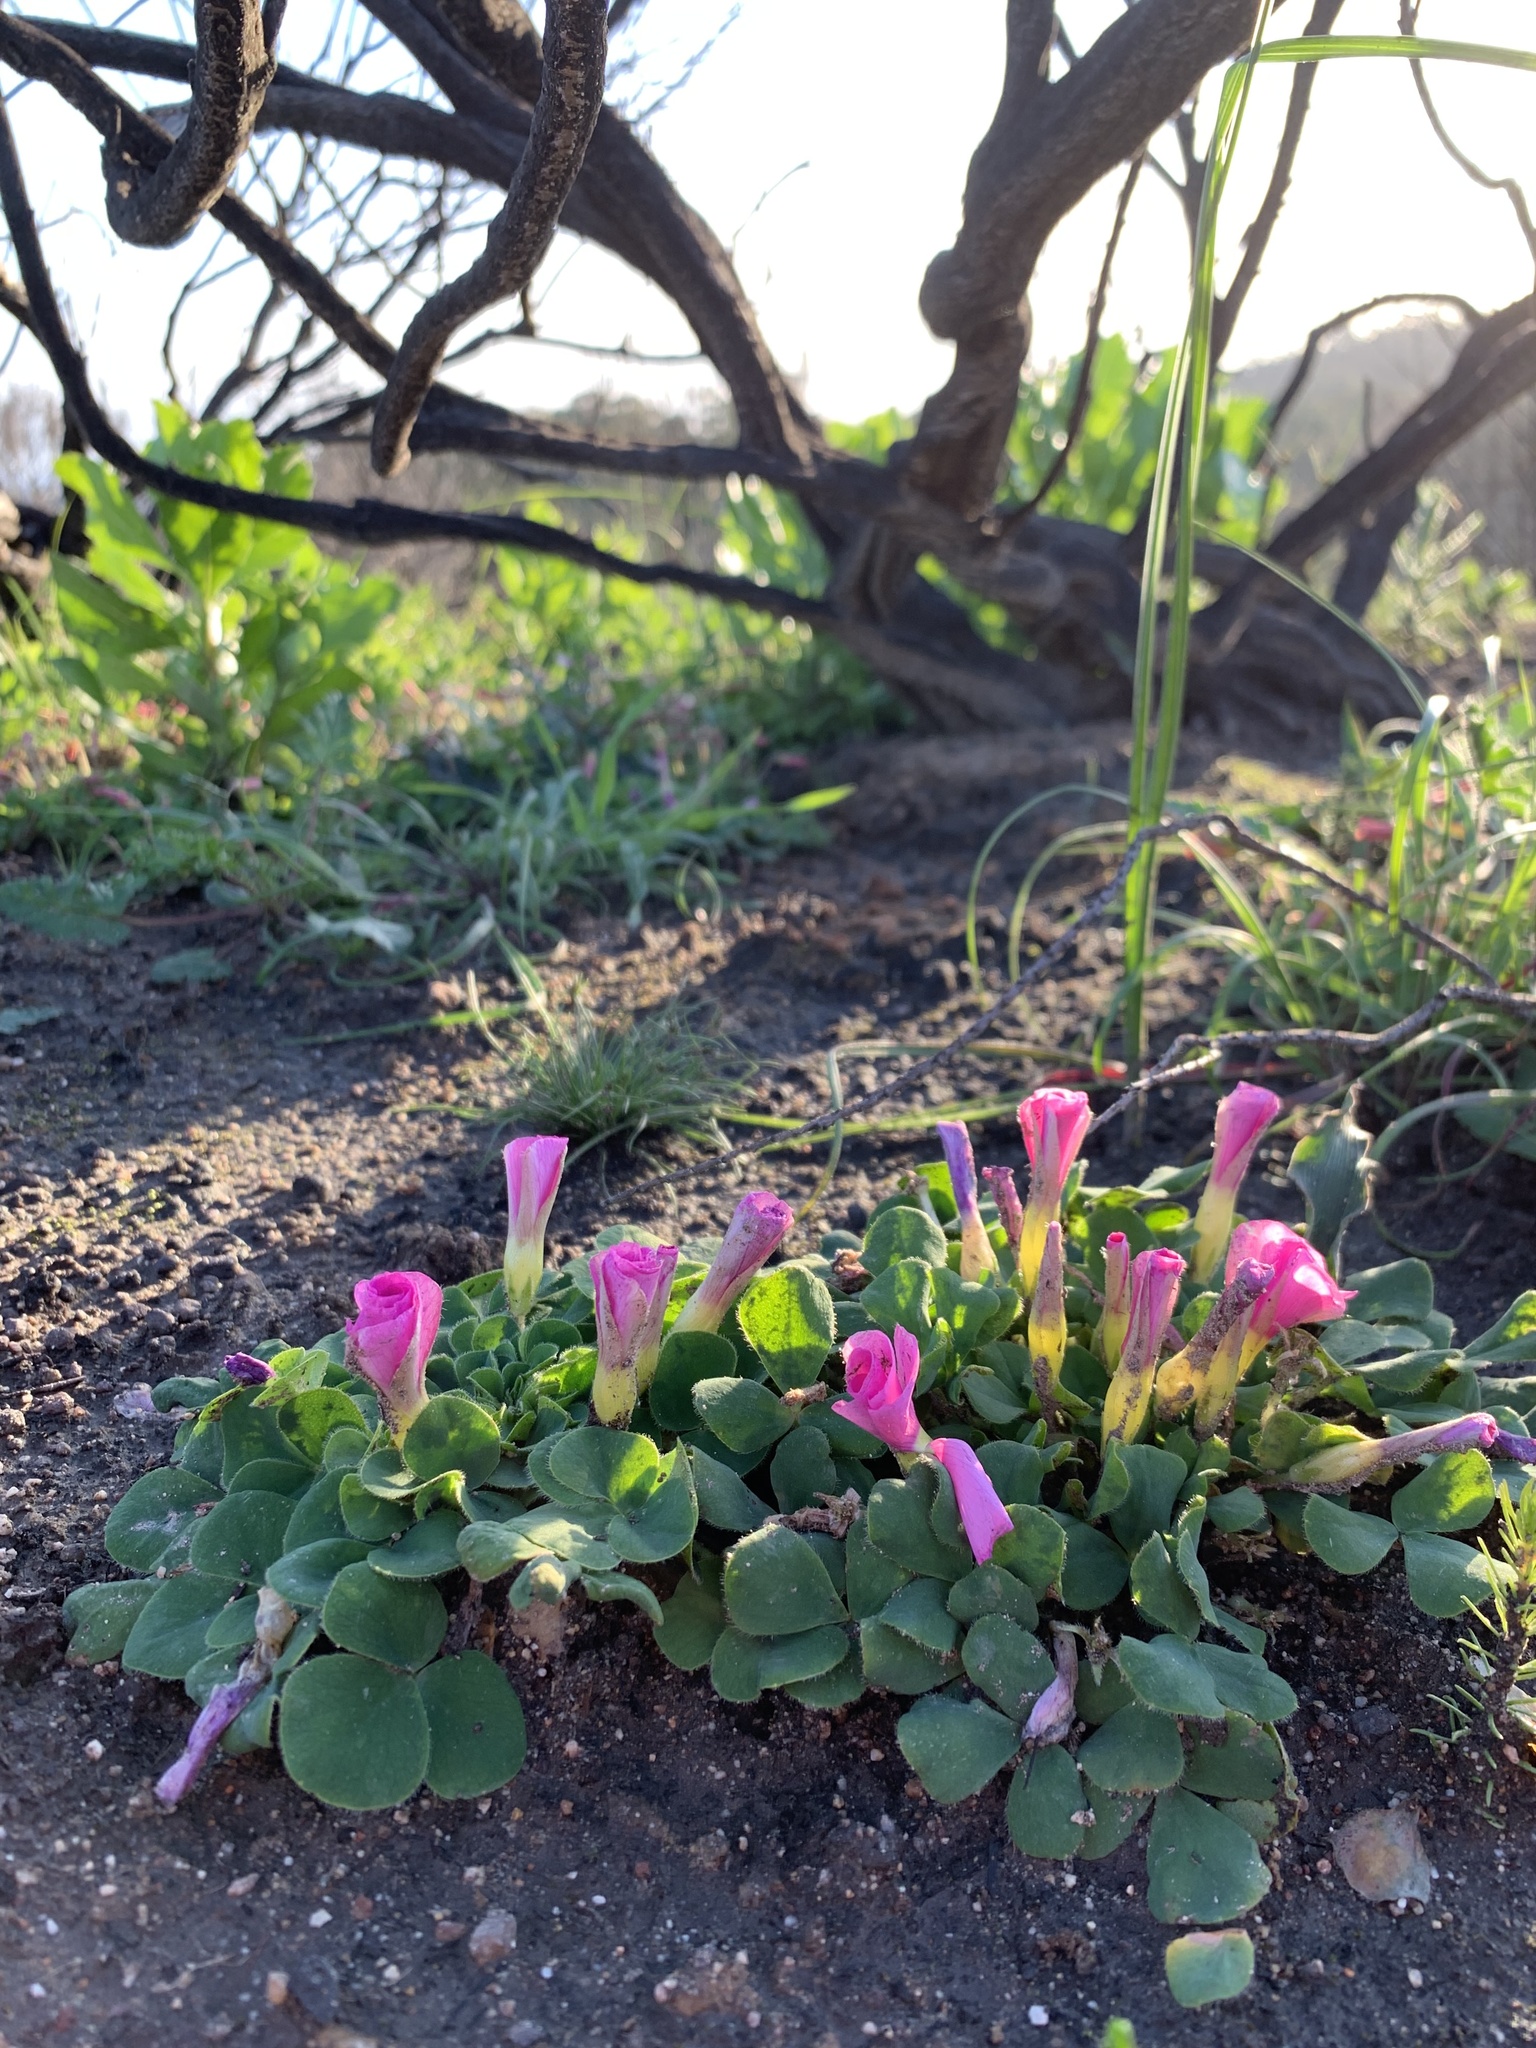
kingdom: Plantae
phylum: Tracheophyta
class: Magnoliopsida
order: Oxalidales
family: Oxalidaceae
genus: Oxalis
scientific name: Oxalis purpurea
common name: Purple woodsorrel
